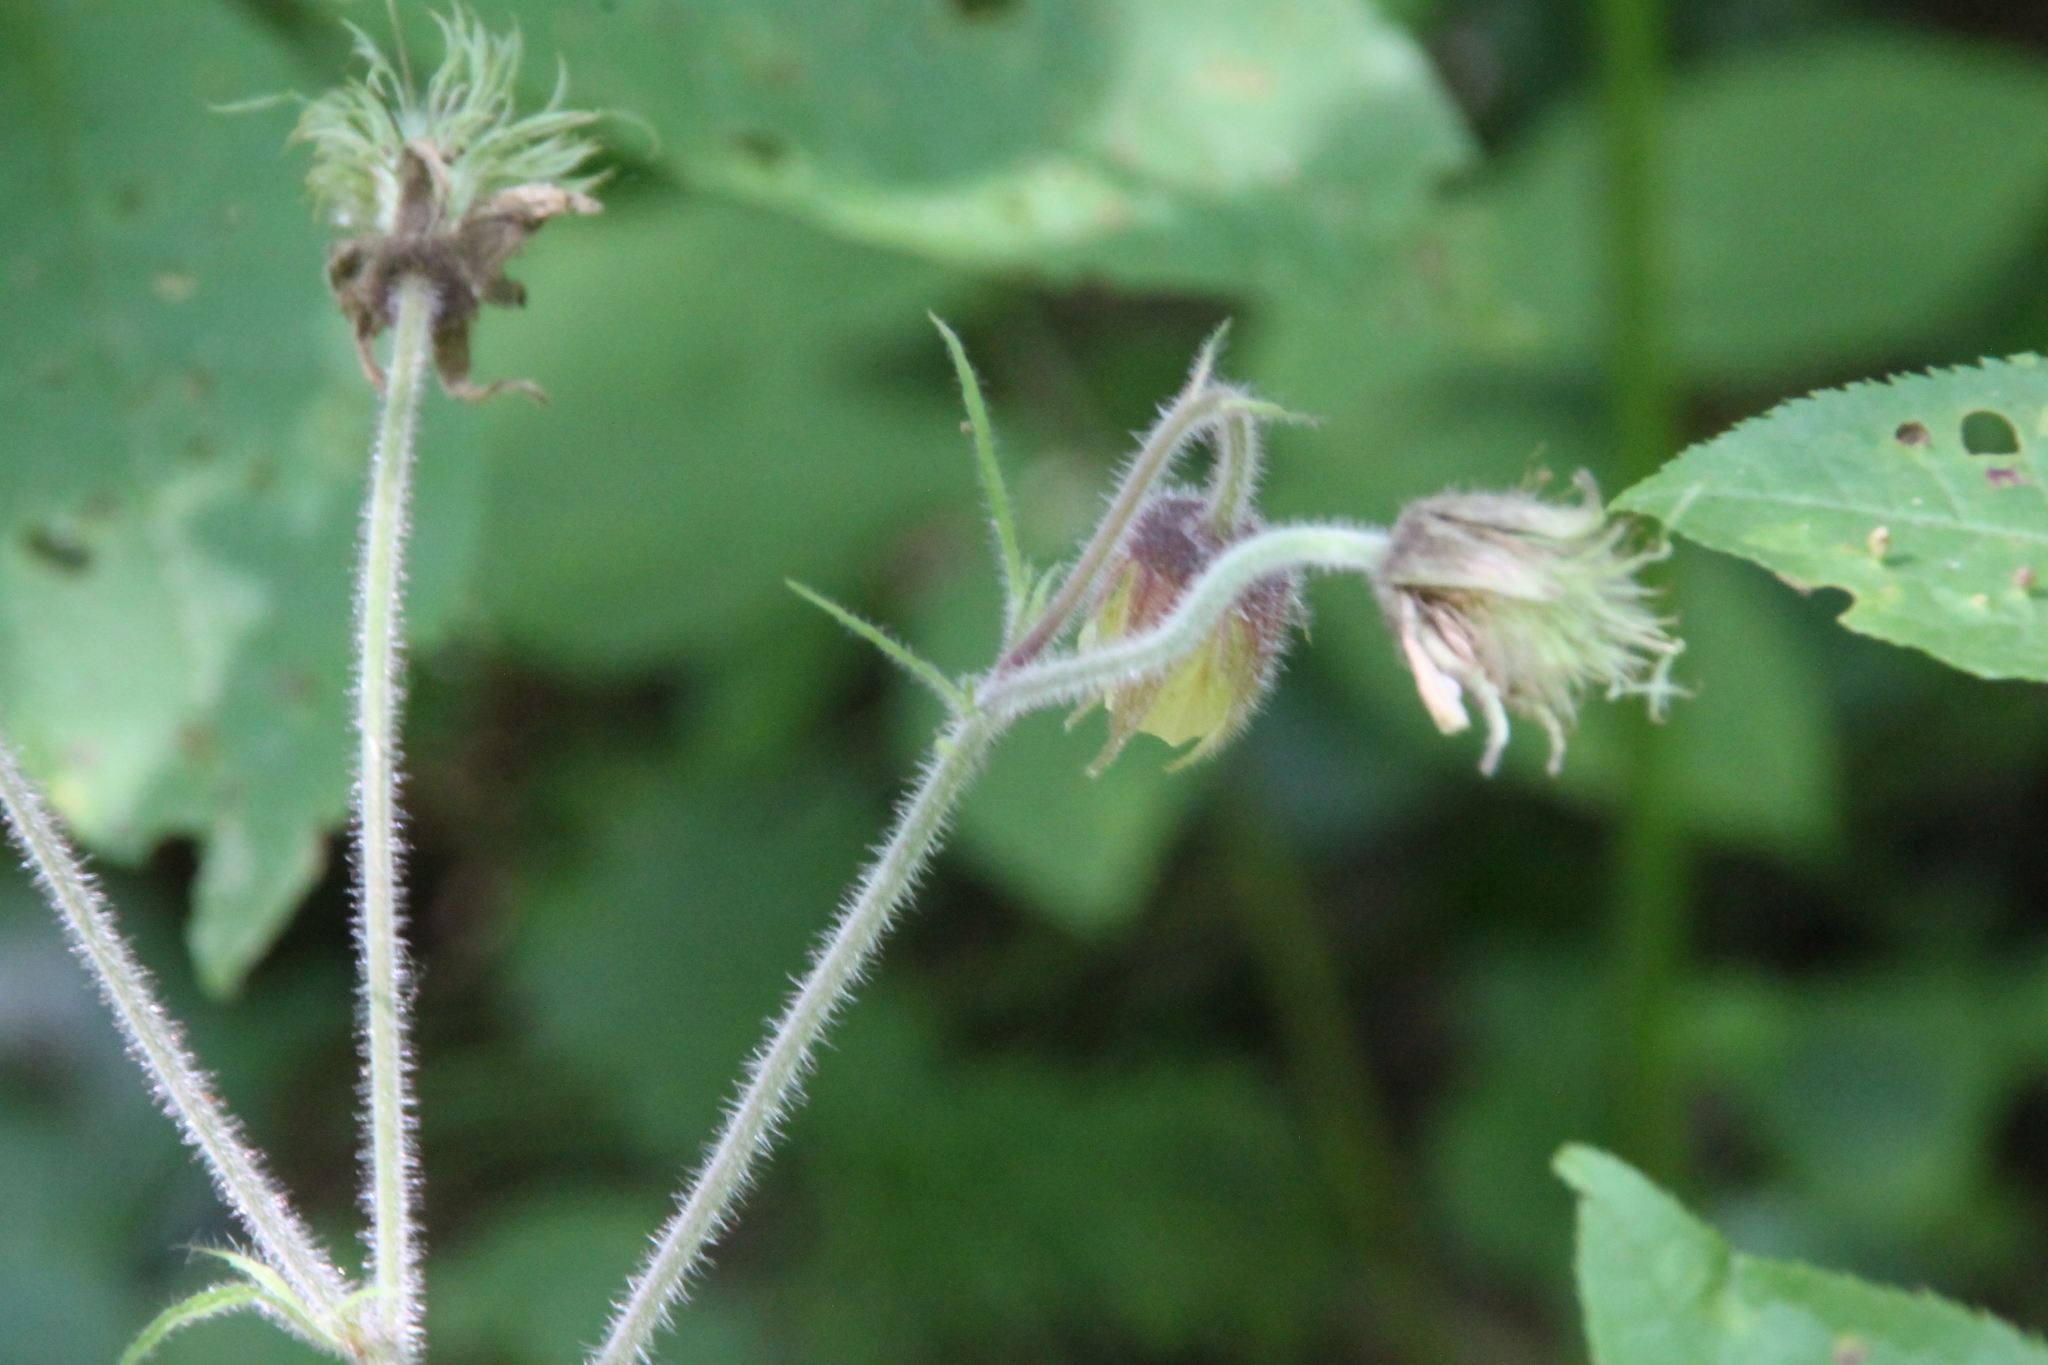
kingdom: Plantae
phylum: Tracheophyta
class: Magnoliopsida
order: Rosales
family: Rosaceae
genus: Geum
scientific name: Geum rivale
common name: Water avens
